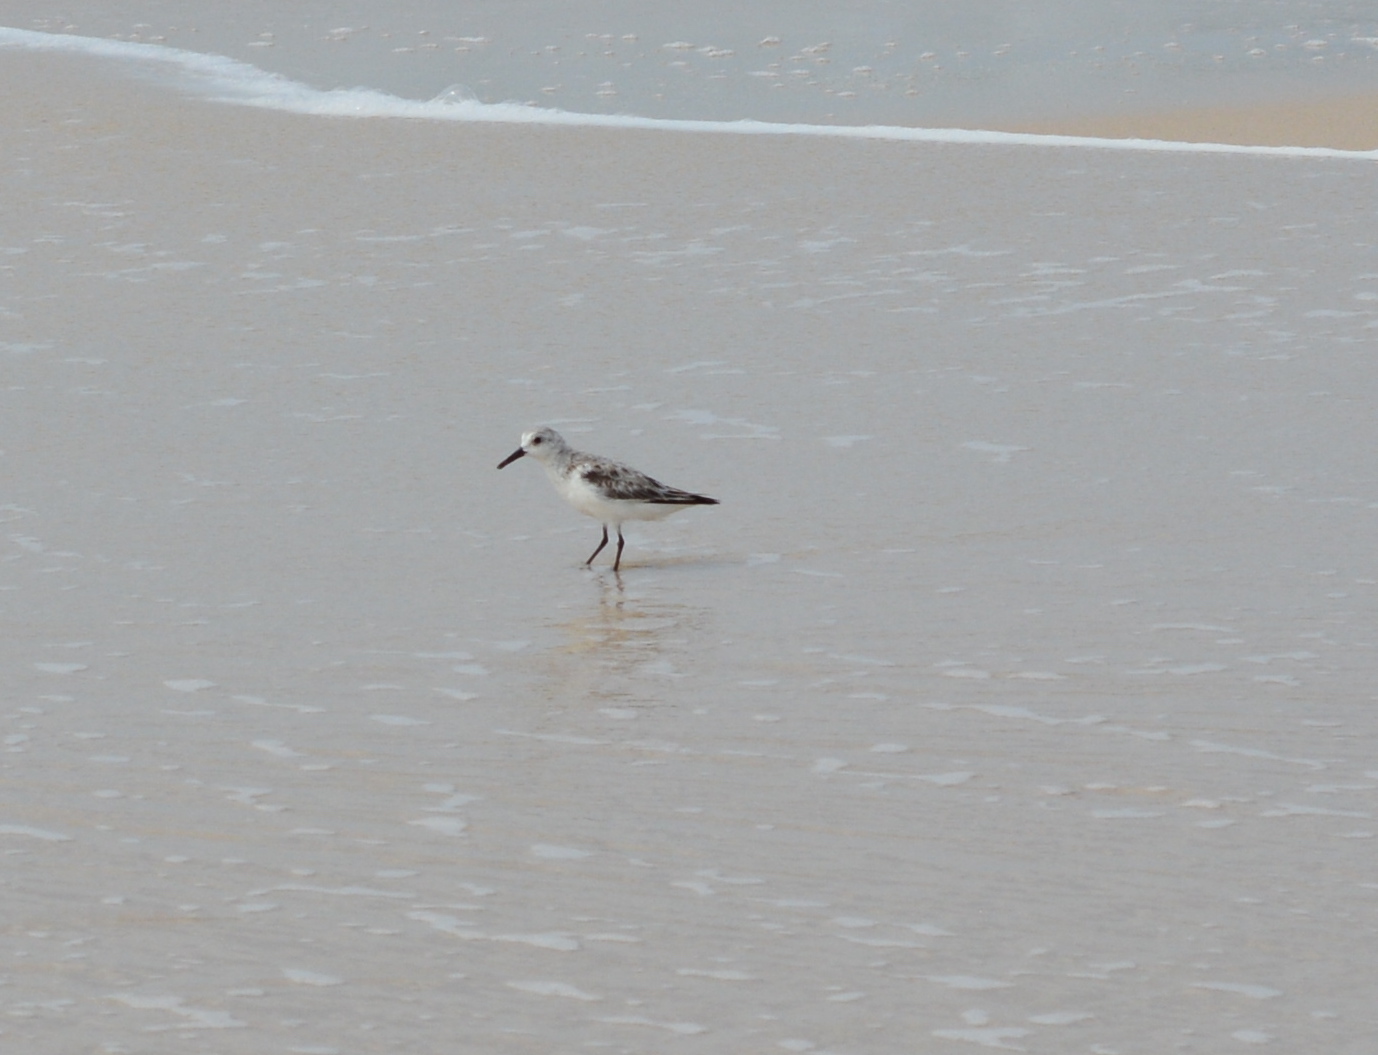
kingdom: Animalia
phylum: Chordata
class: Aves
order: Charadriiformes
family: Scolopacidae
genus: Calidris
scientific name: Calidris alba
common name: Sanderling
